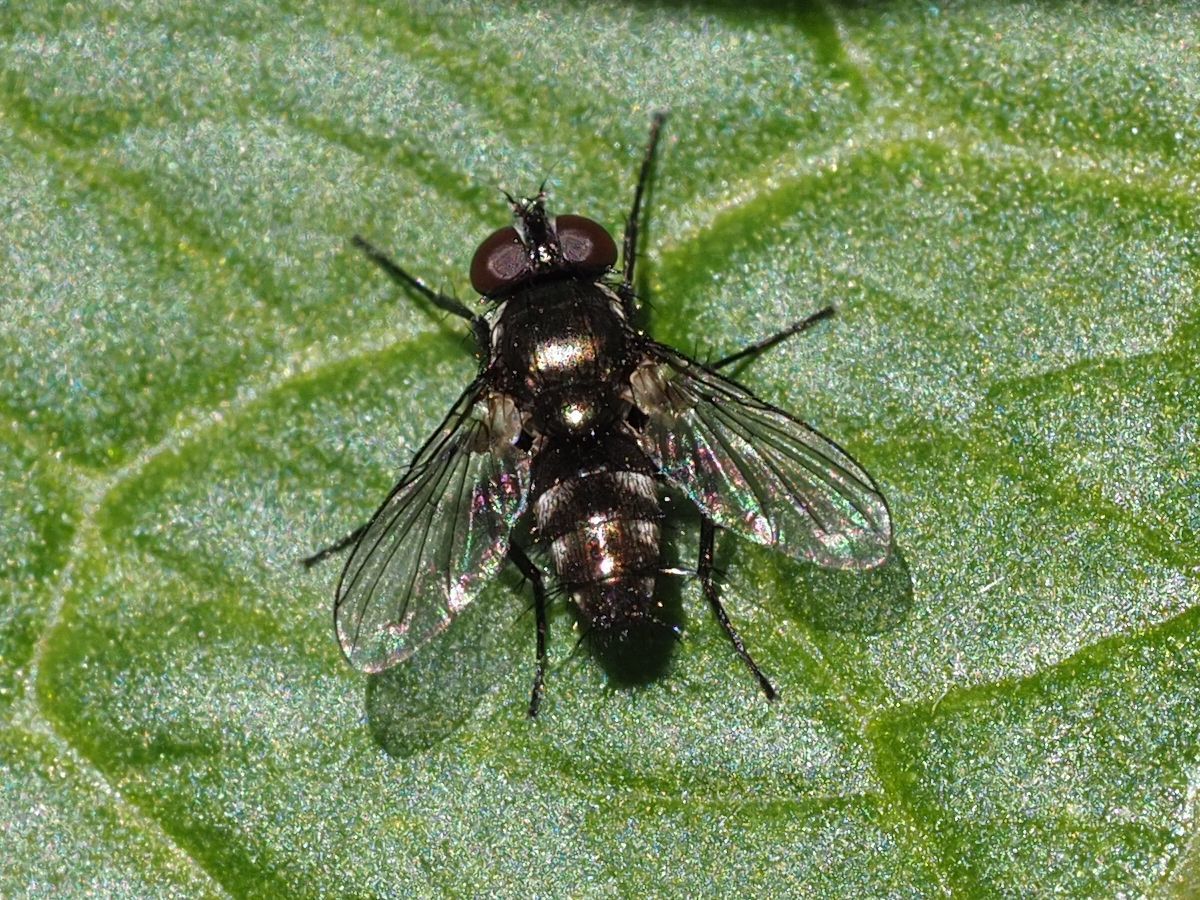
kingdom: Animalia
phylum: Arthropoda
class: Insecta
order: Diptera
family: Calliphoridae
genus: Rhinophora
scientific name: Rhinophora lepida
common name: Pouting woodlouse-fly
